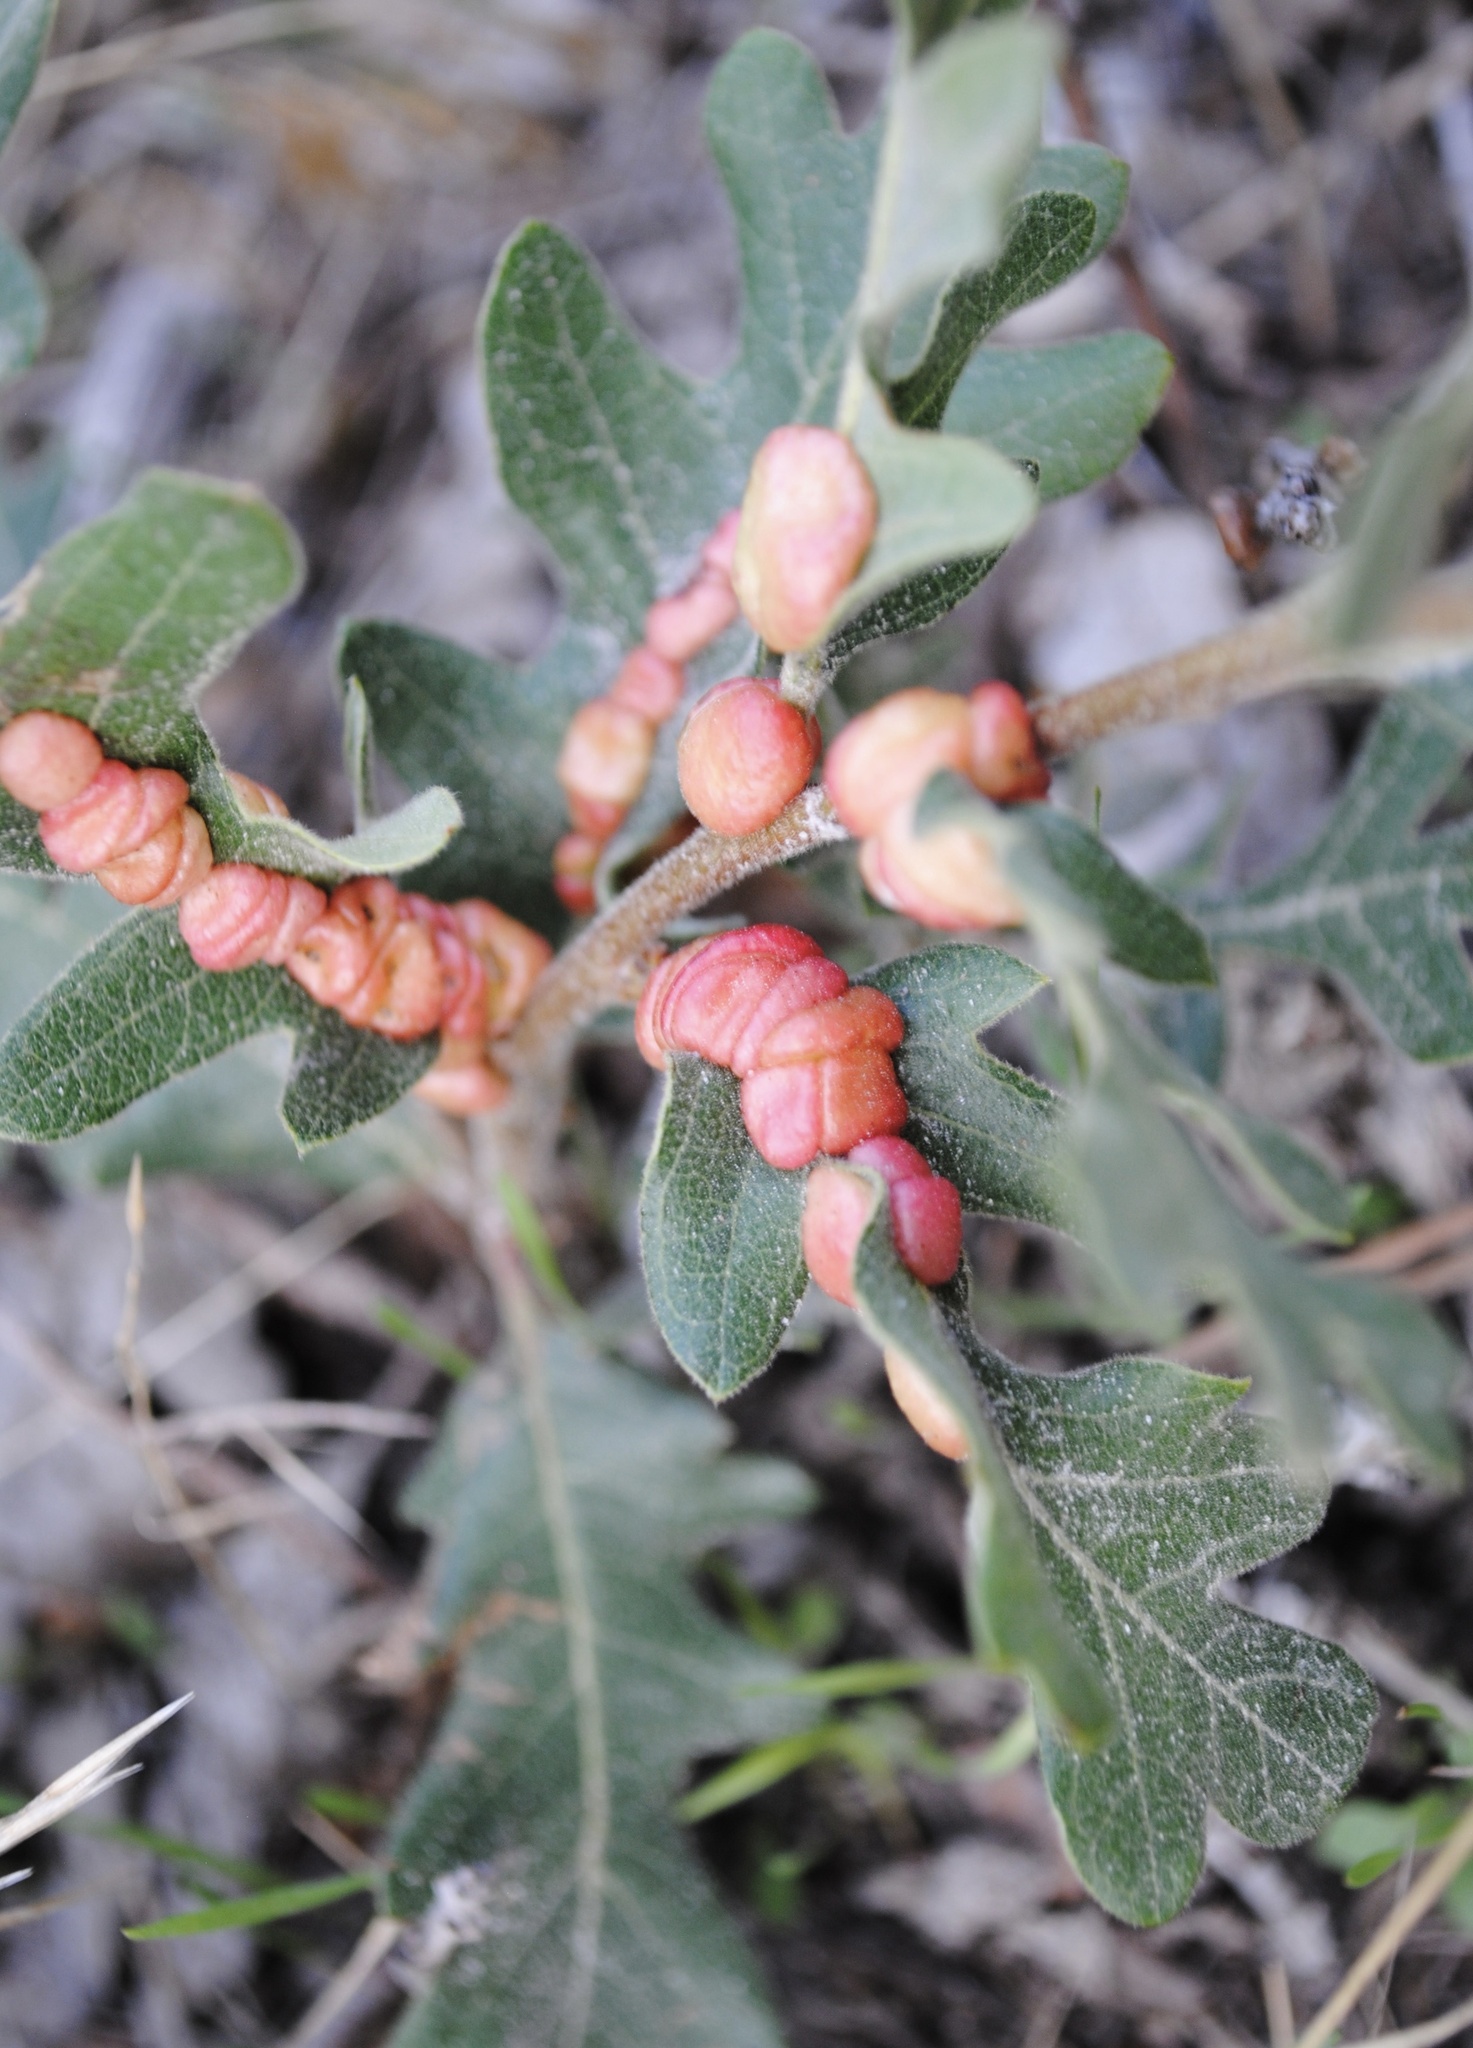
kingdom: Animalia
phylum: Arthropoda
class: Insecta
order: Hymenoptera
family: Cynipidae
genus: Trigonaspis
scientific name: Trigonaspis
